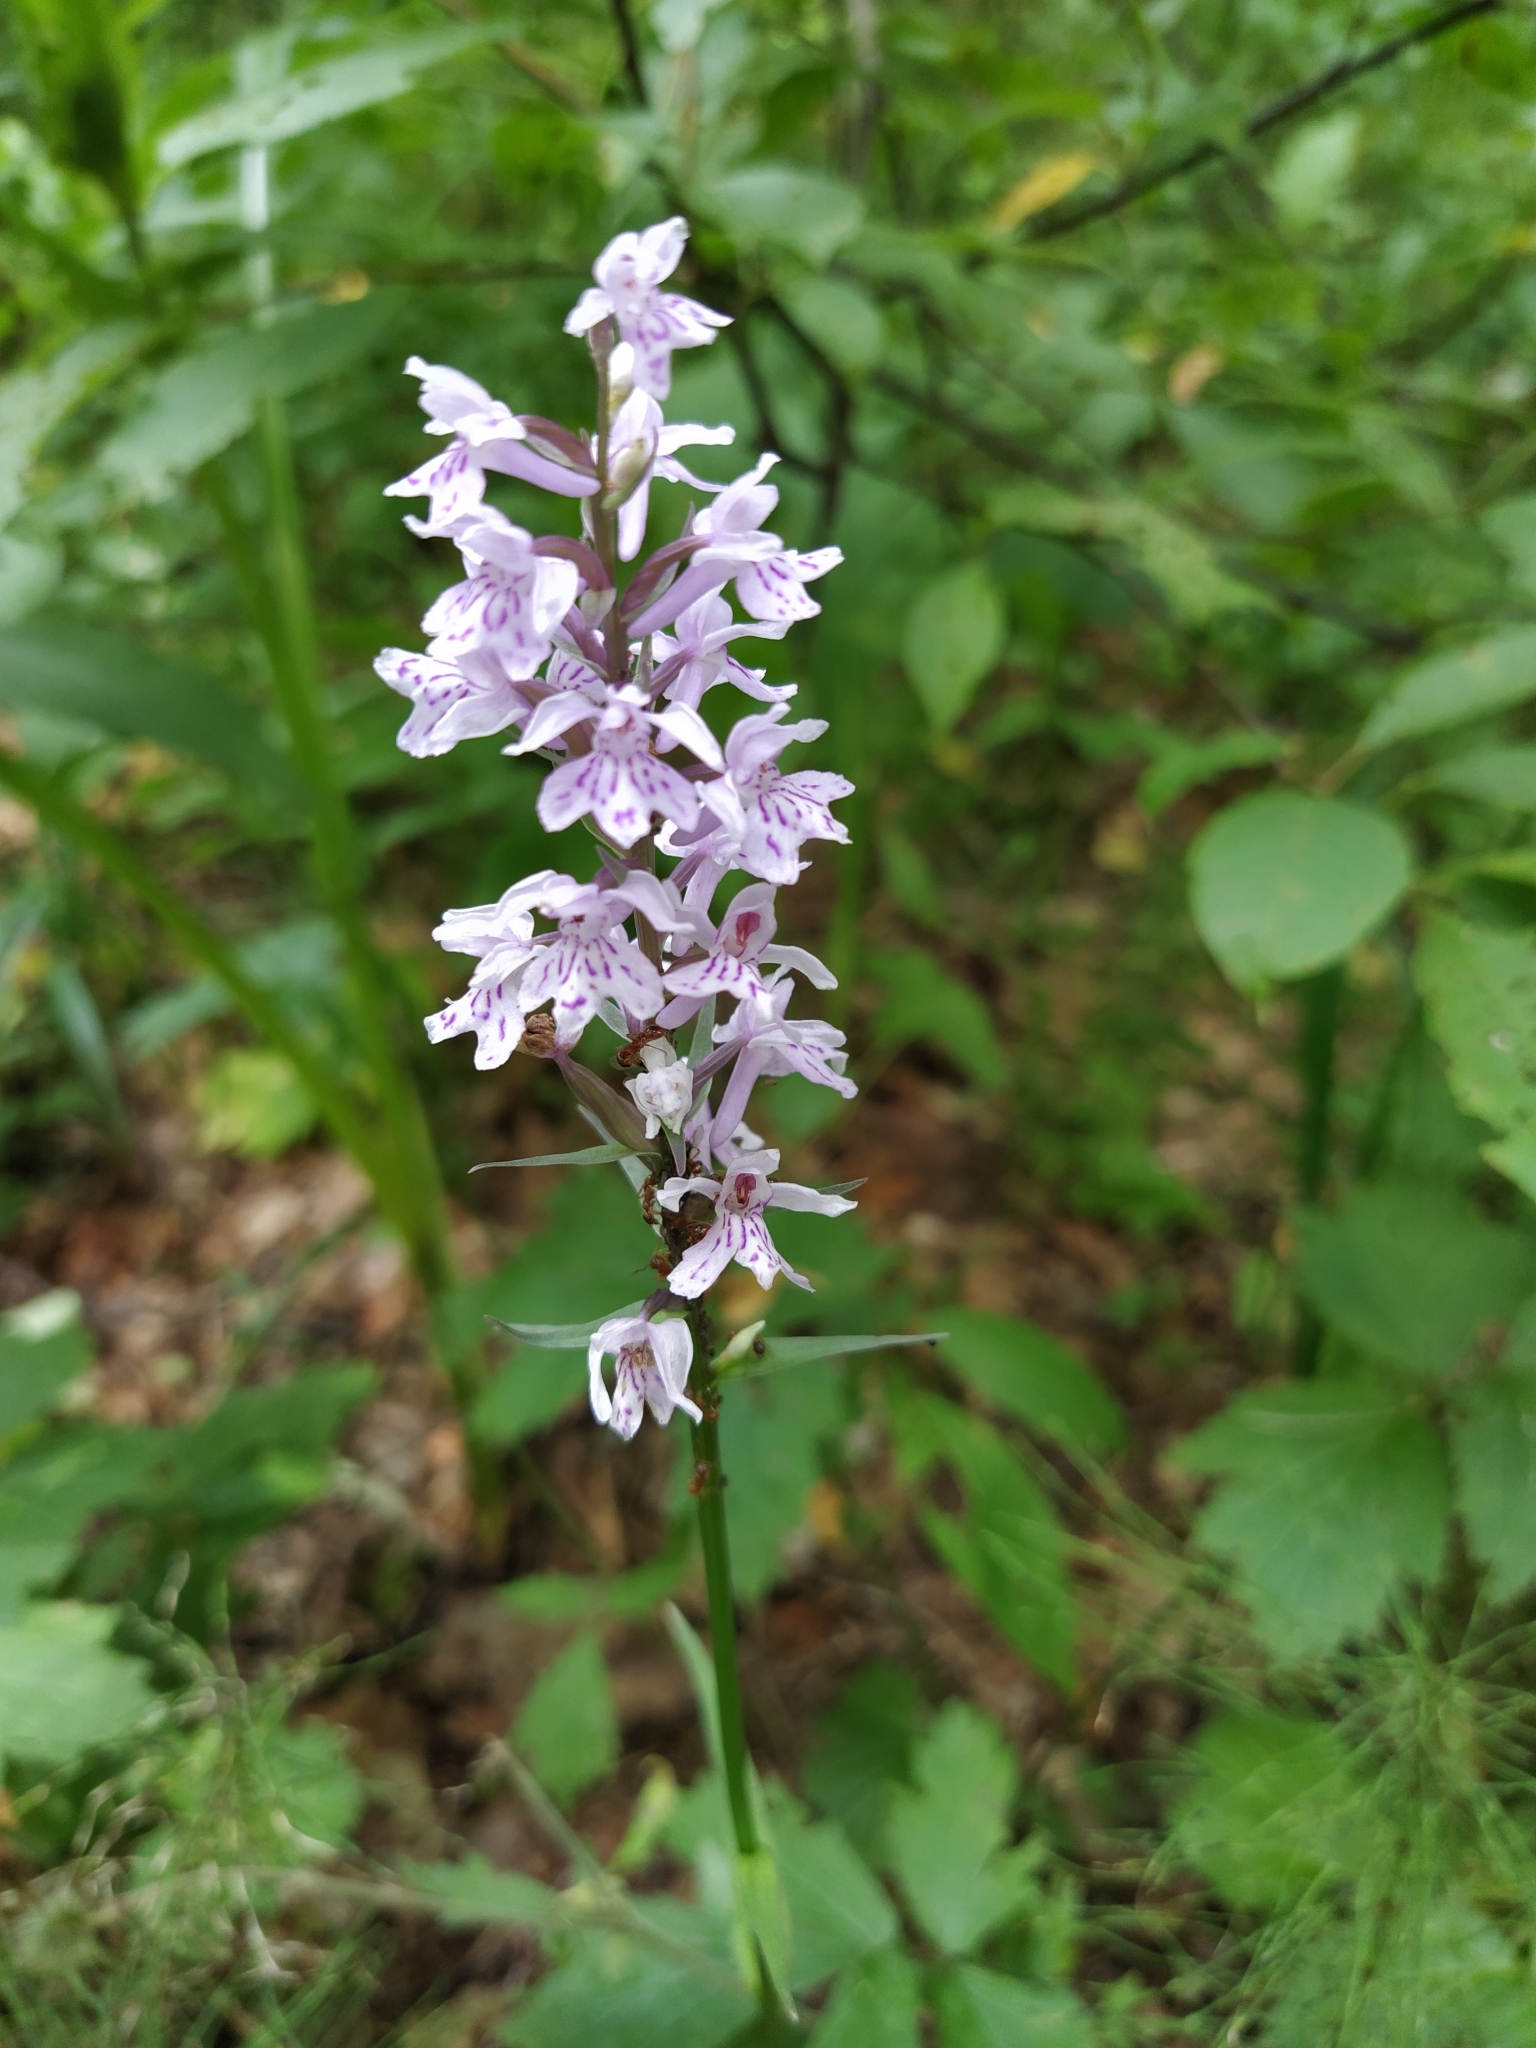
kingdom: Plantae
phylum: Tracheophyta
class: Liliopsida
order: Asparagales
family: Orchidaceae
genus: Dactylorhiza
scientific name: Dactylorhiza maculata
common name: Heath spotted-orchid
